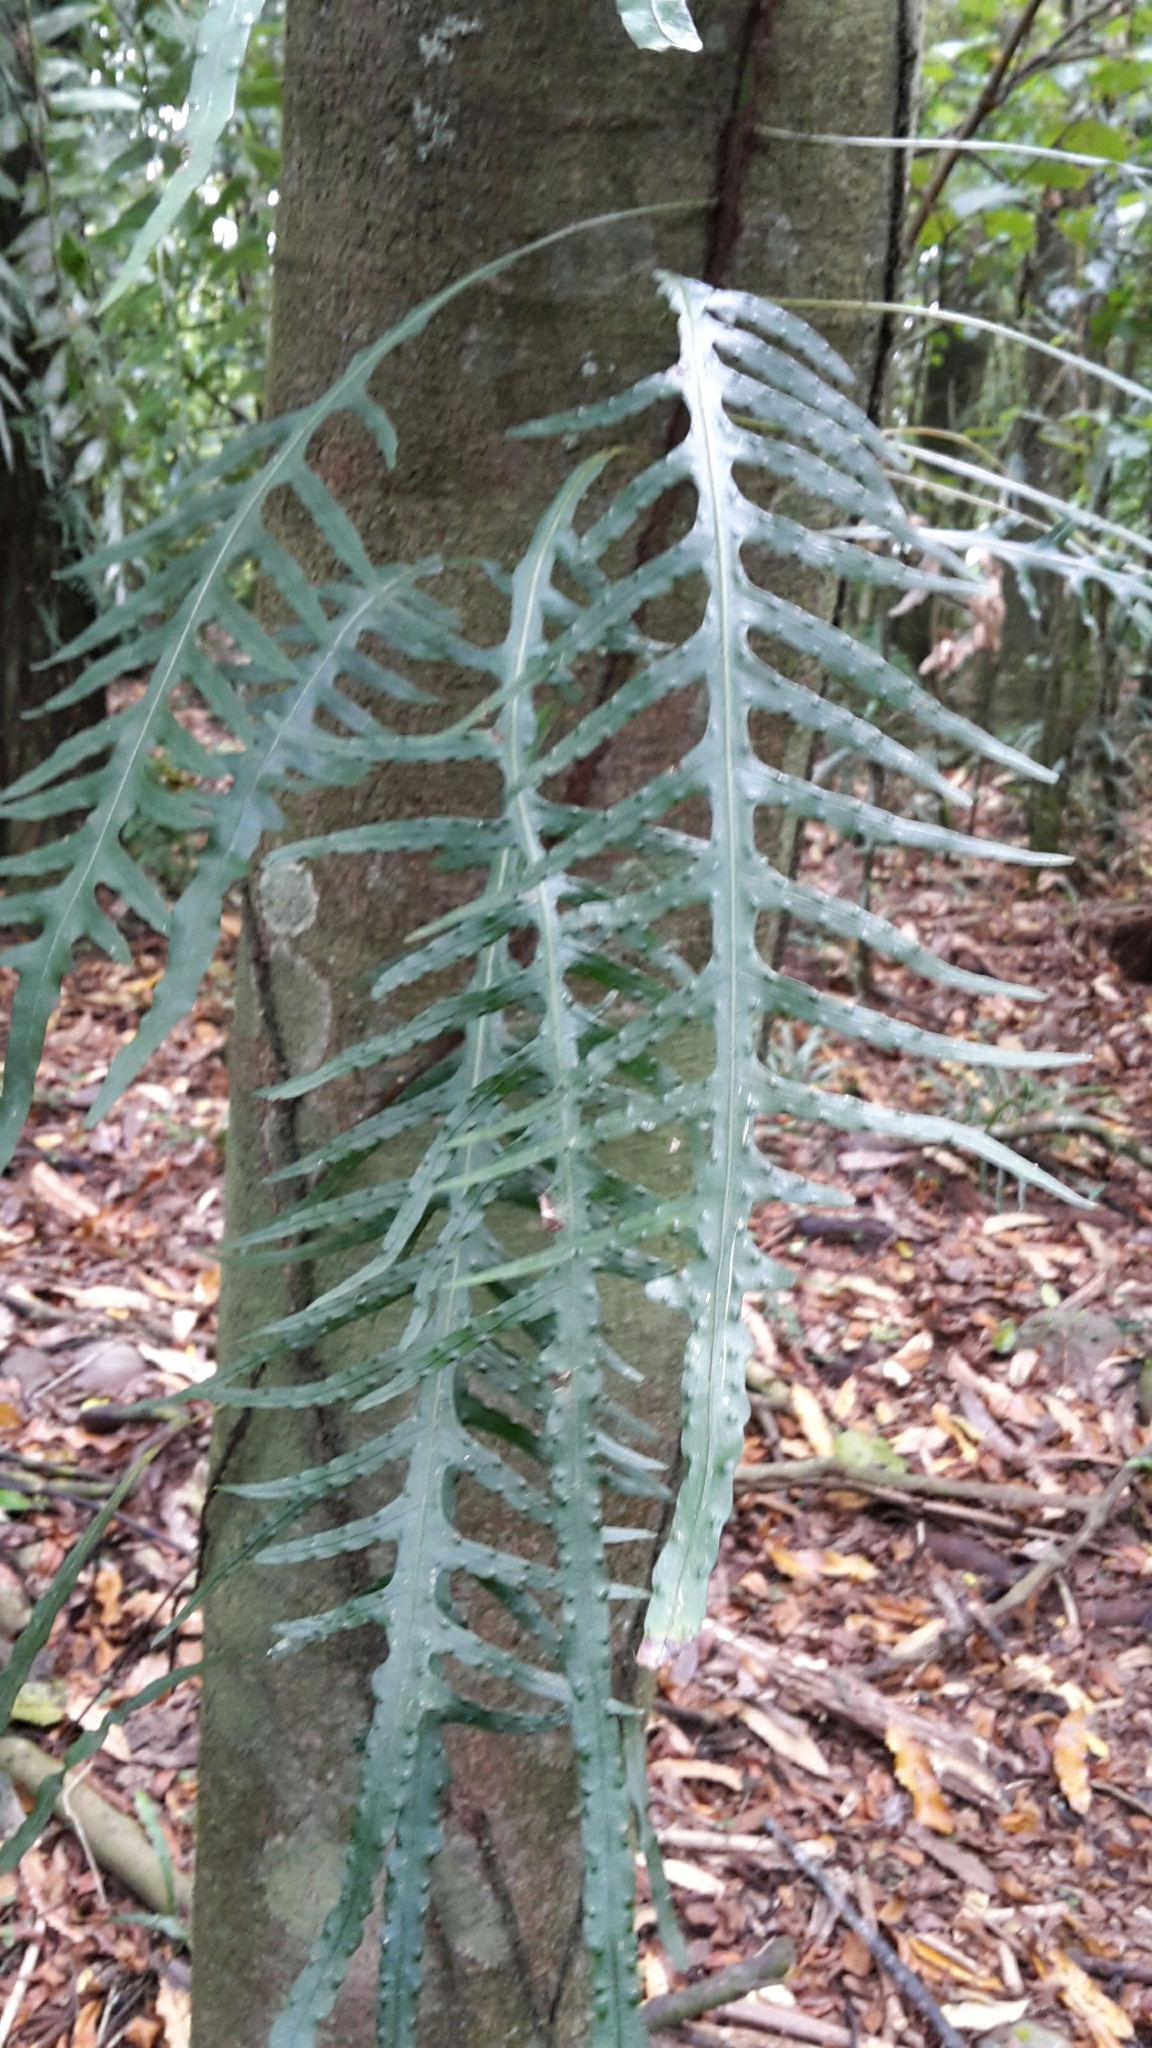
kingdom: Plantae
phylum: Tracheophyta
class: Polypodiopsida
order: Polypodiales
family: Polypodiaceae
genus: Lecanopteris
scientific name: Lecanopteris scandens
